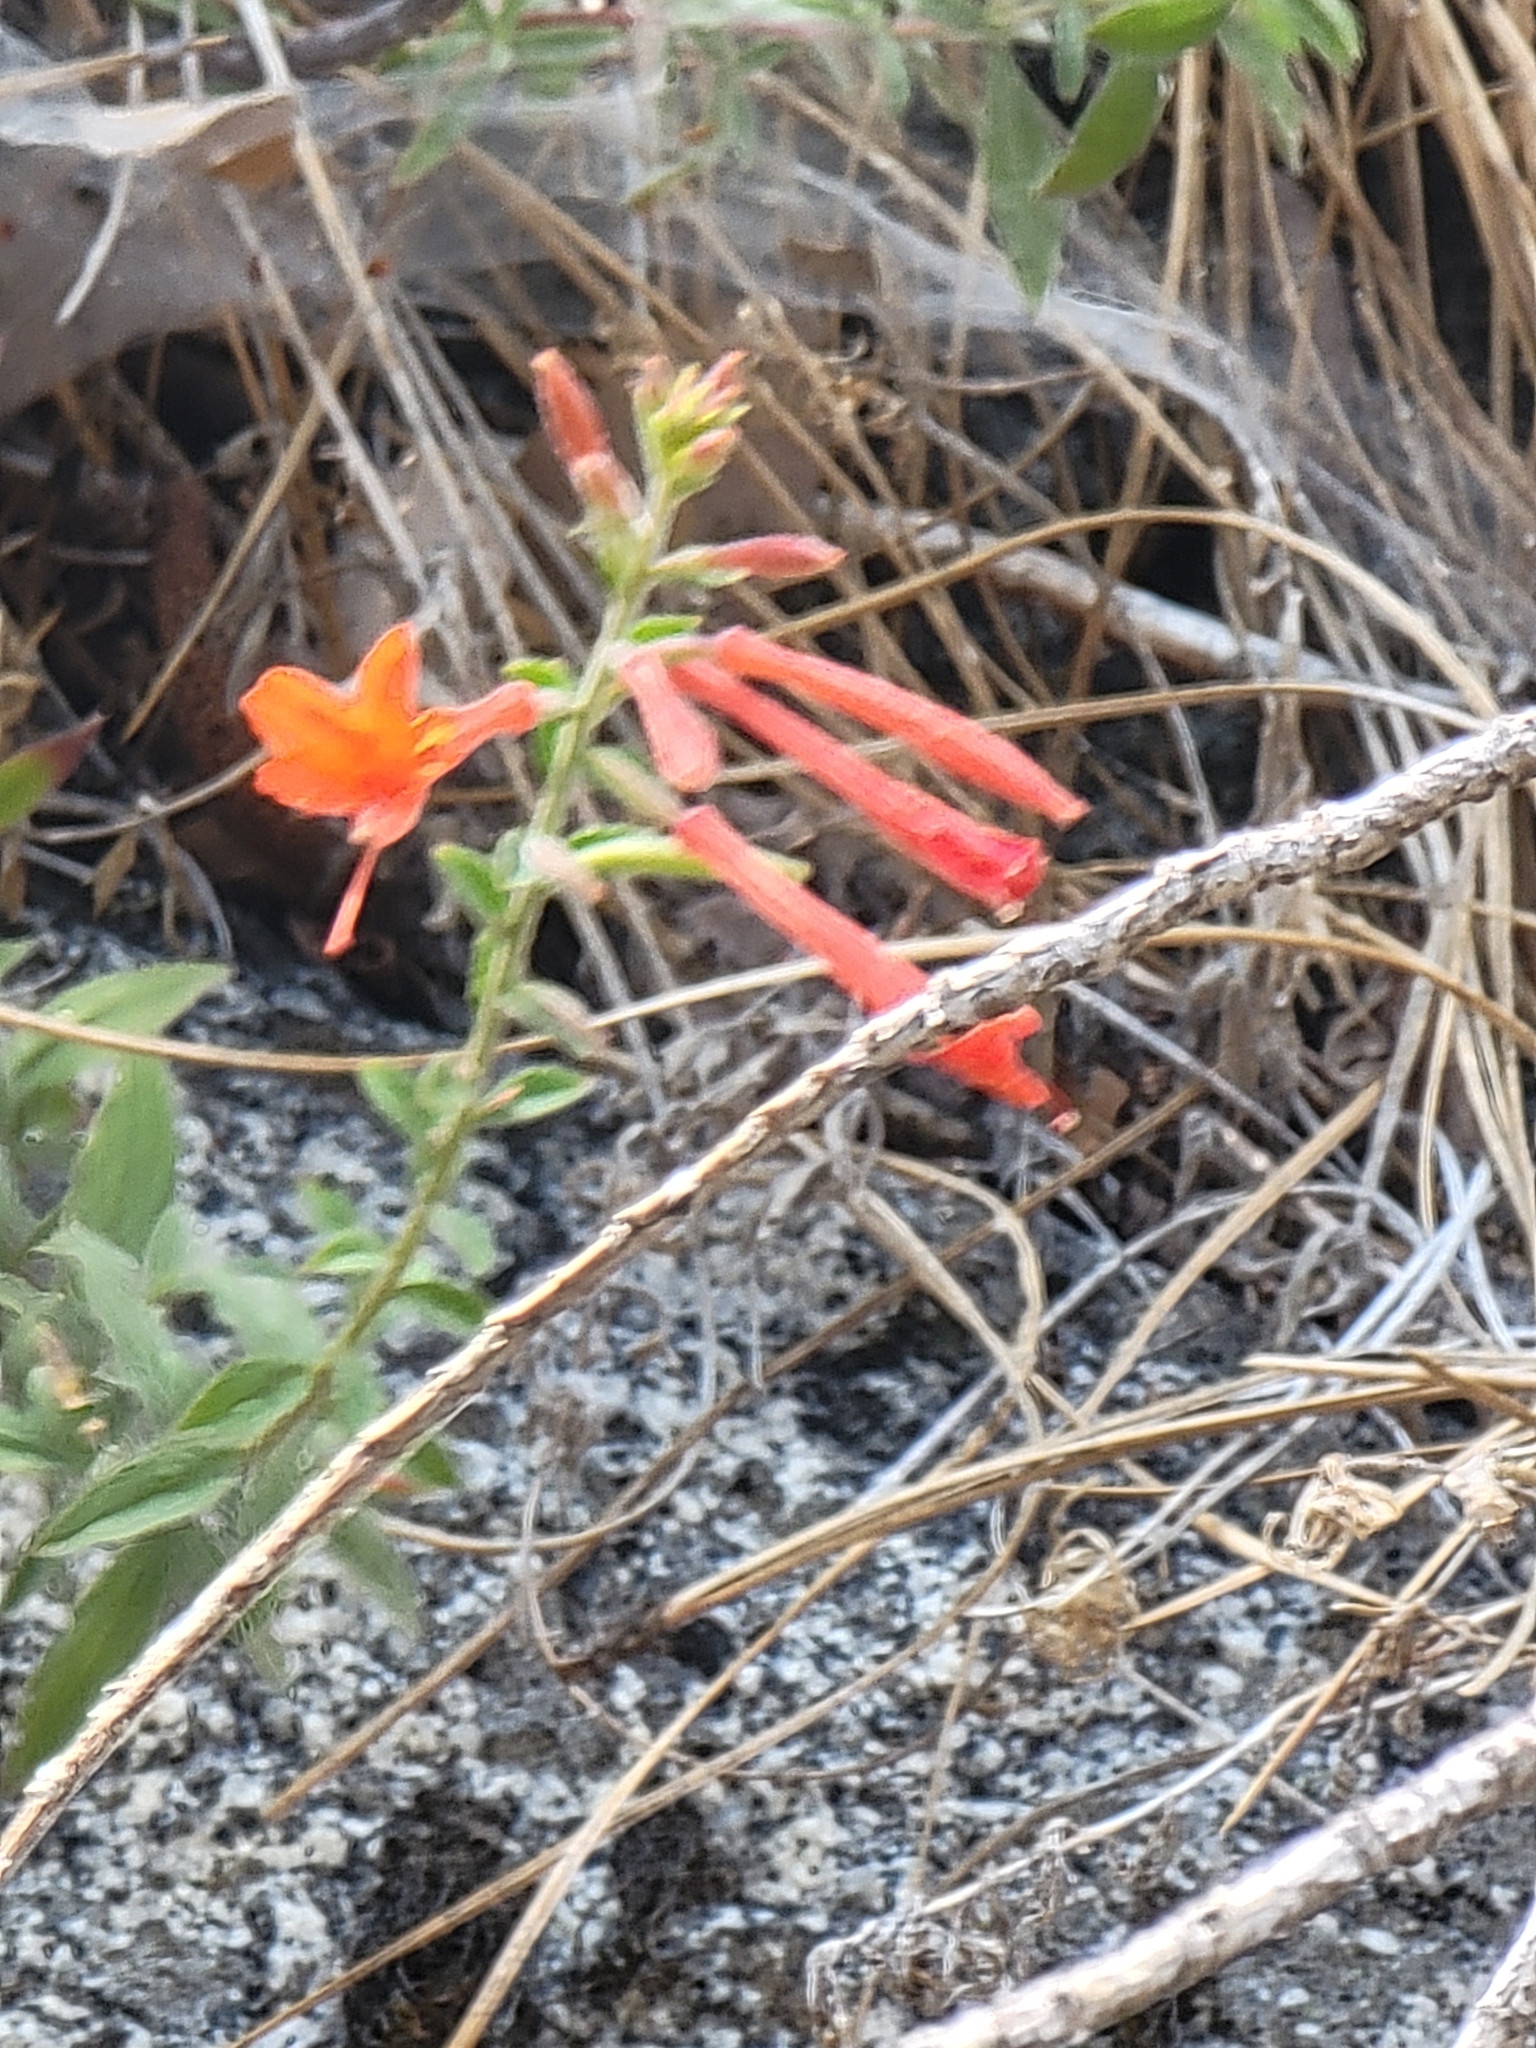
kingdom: Plantae
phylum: Tracheophyta
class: Magnoliopsida
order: Myrtales
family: Onagraceae
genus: Epilobium
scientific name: Epilobium canum
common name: California-fuchsia
